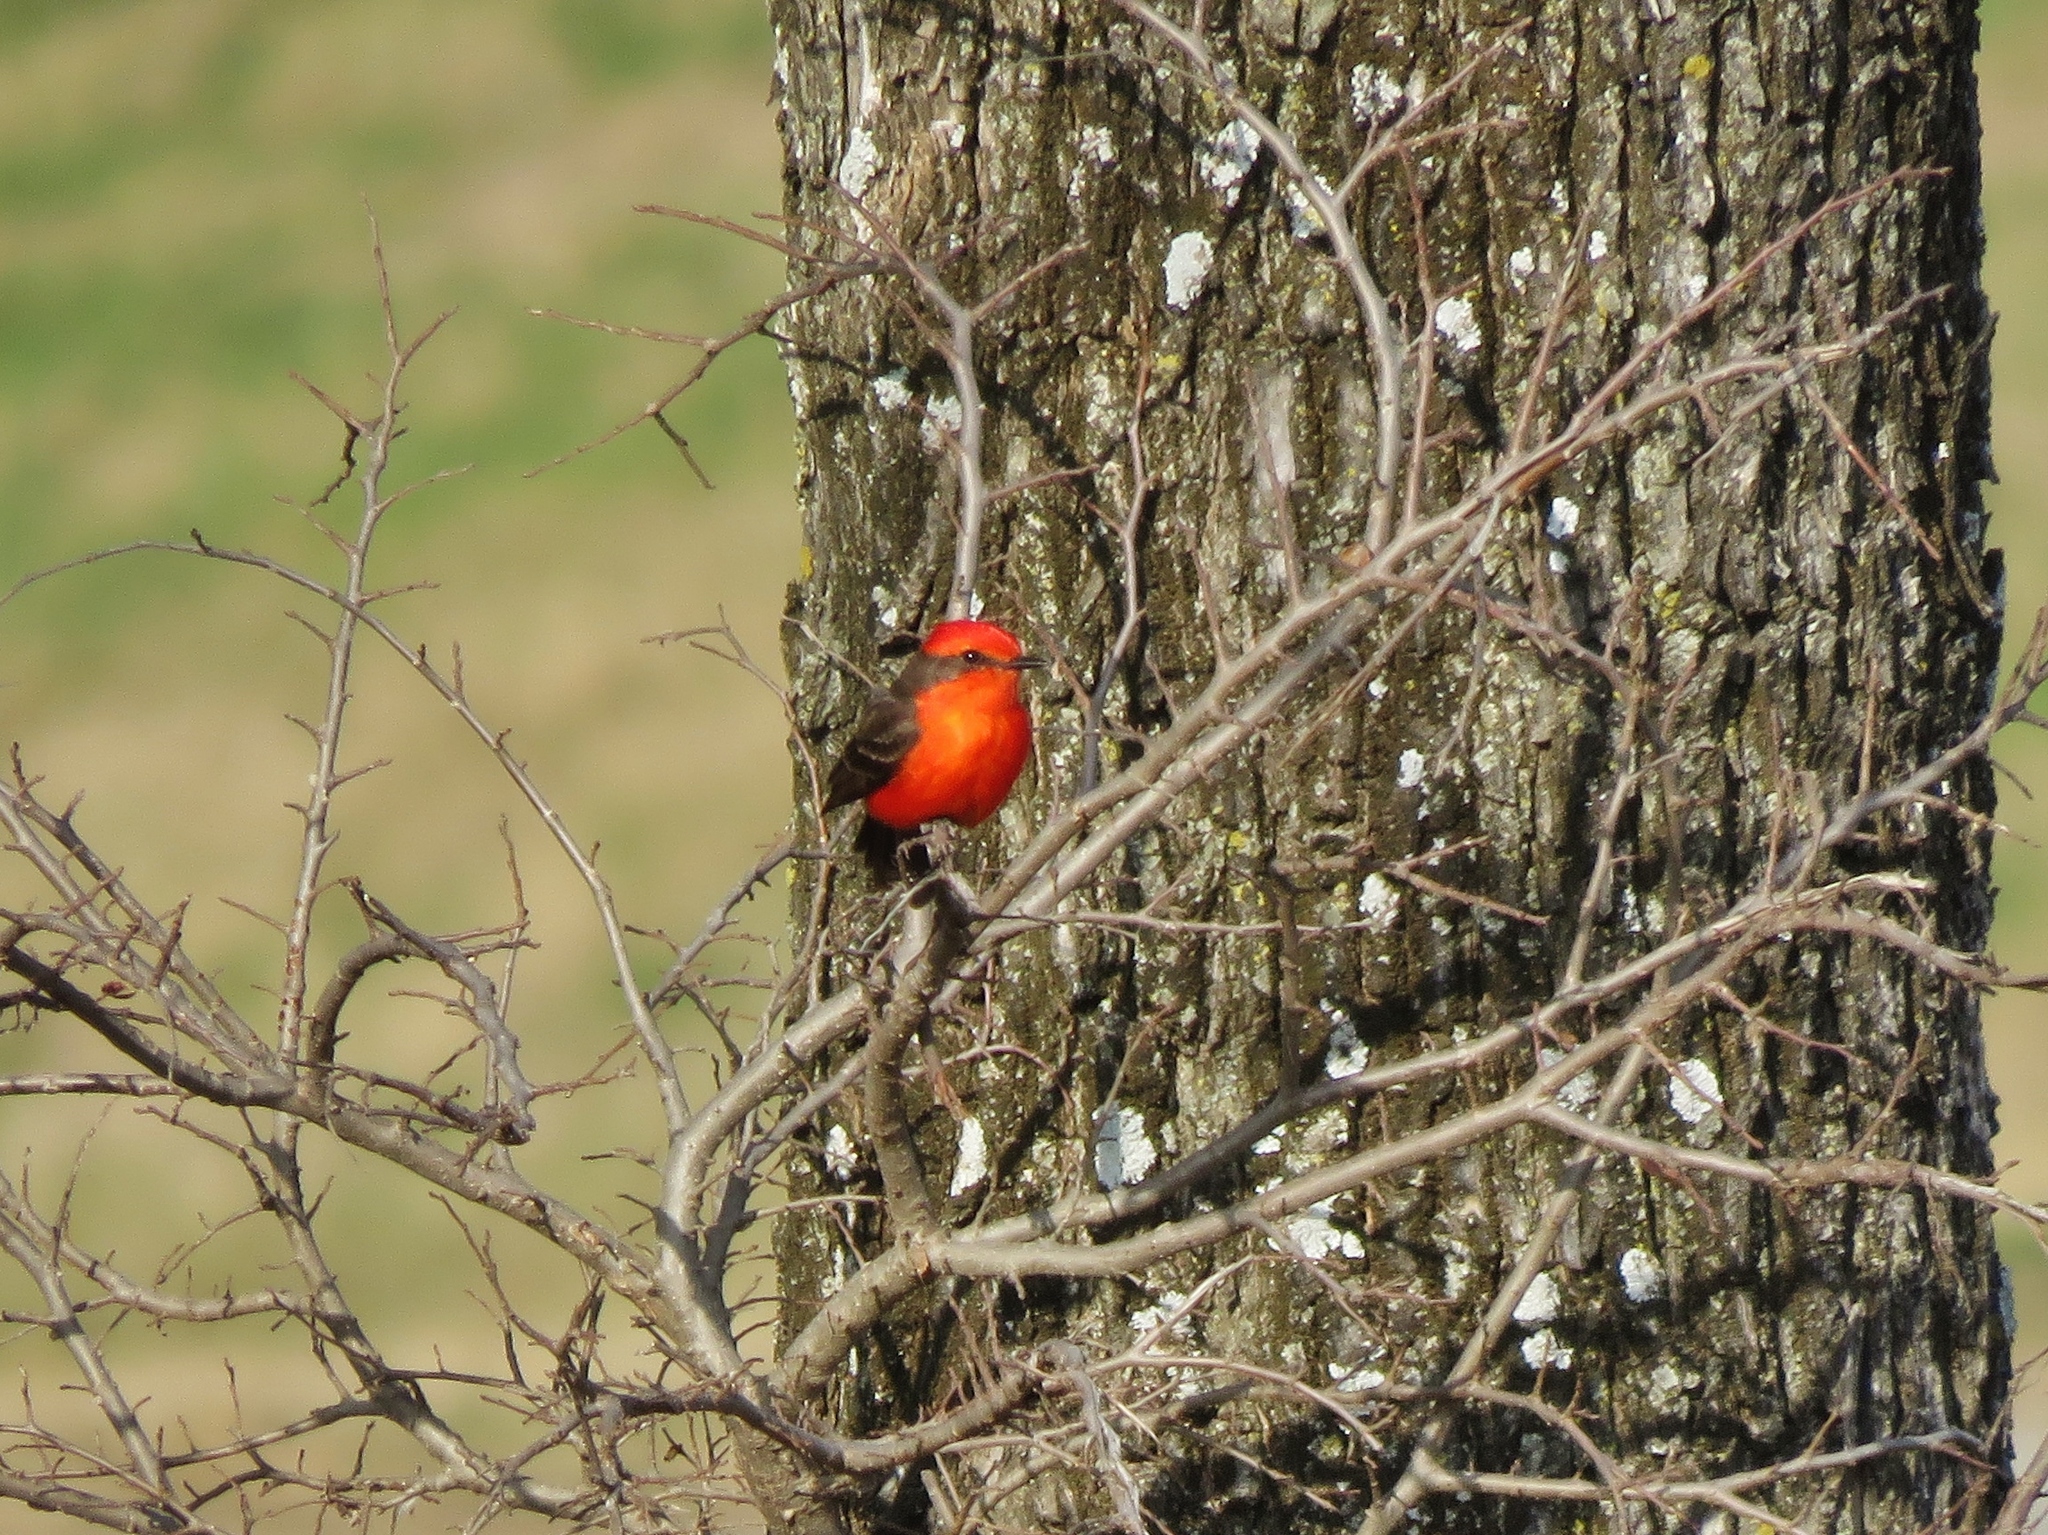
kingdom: Animalia
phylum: Chordata
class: Aves
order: Passeriformes
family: Tyrannidae
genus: Pyrocephalus
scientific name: Pyrocephalus rubinus
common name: Vermilion flycatcher
